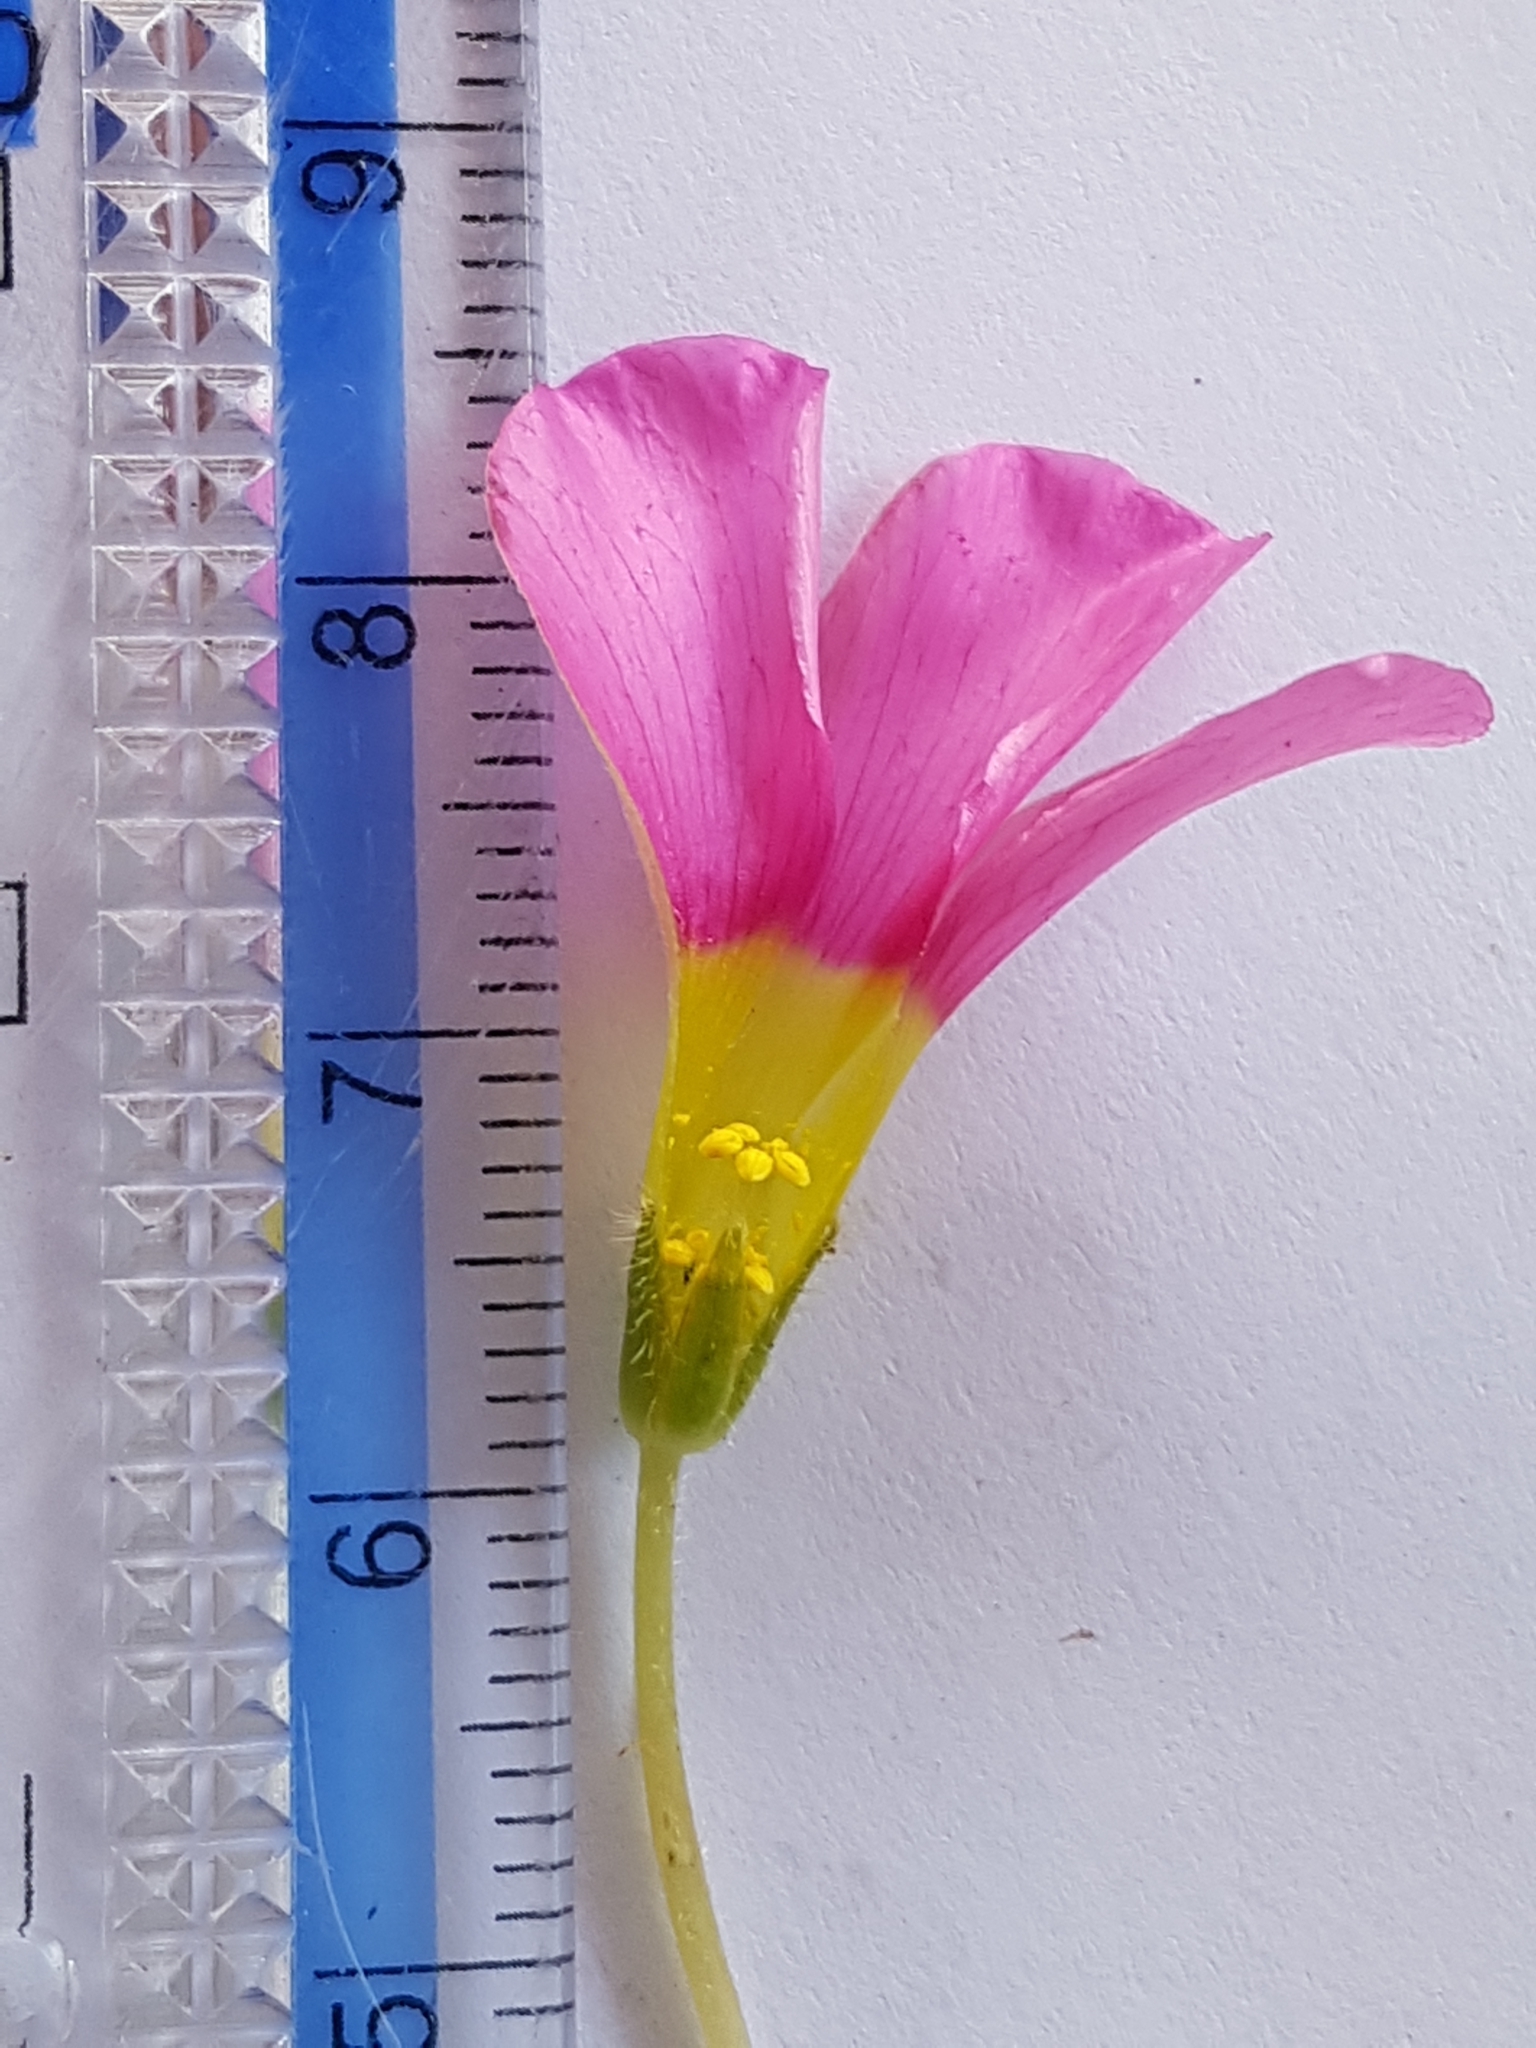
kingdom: Plantae
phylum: Tracheophyta
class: Magnoliopsida
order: Oxalidales
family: Oxalidaceae
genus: Oxalis
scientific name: Oxalis purpurea
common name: Purple woodsorrel
